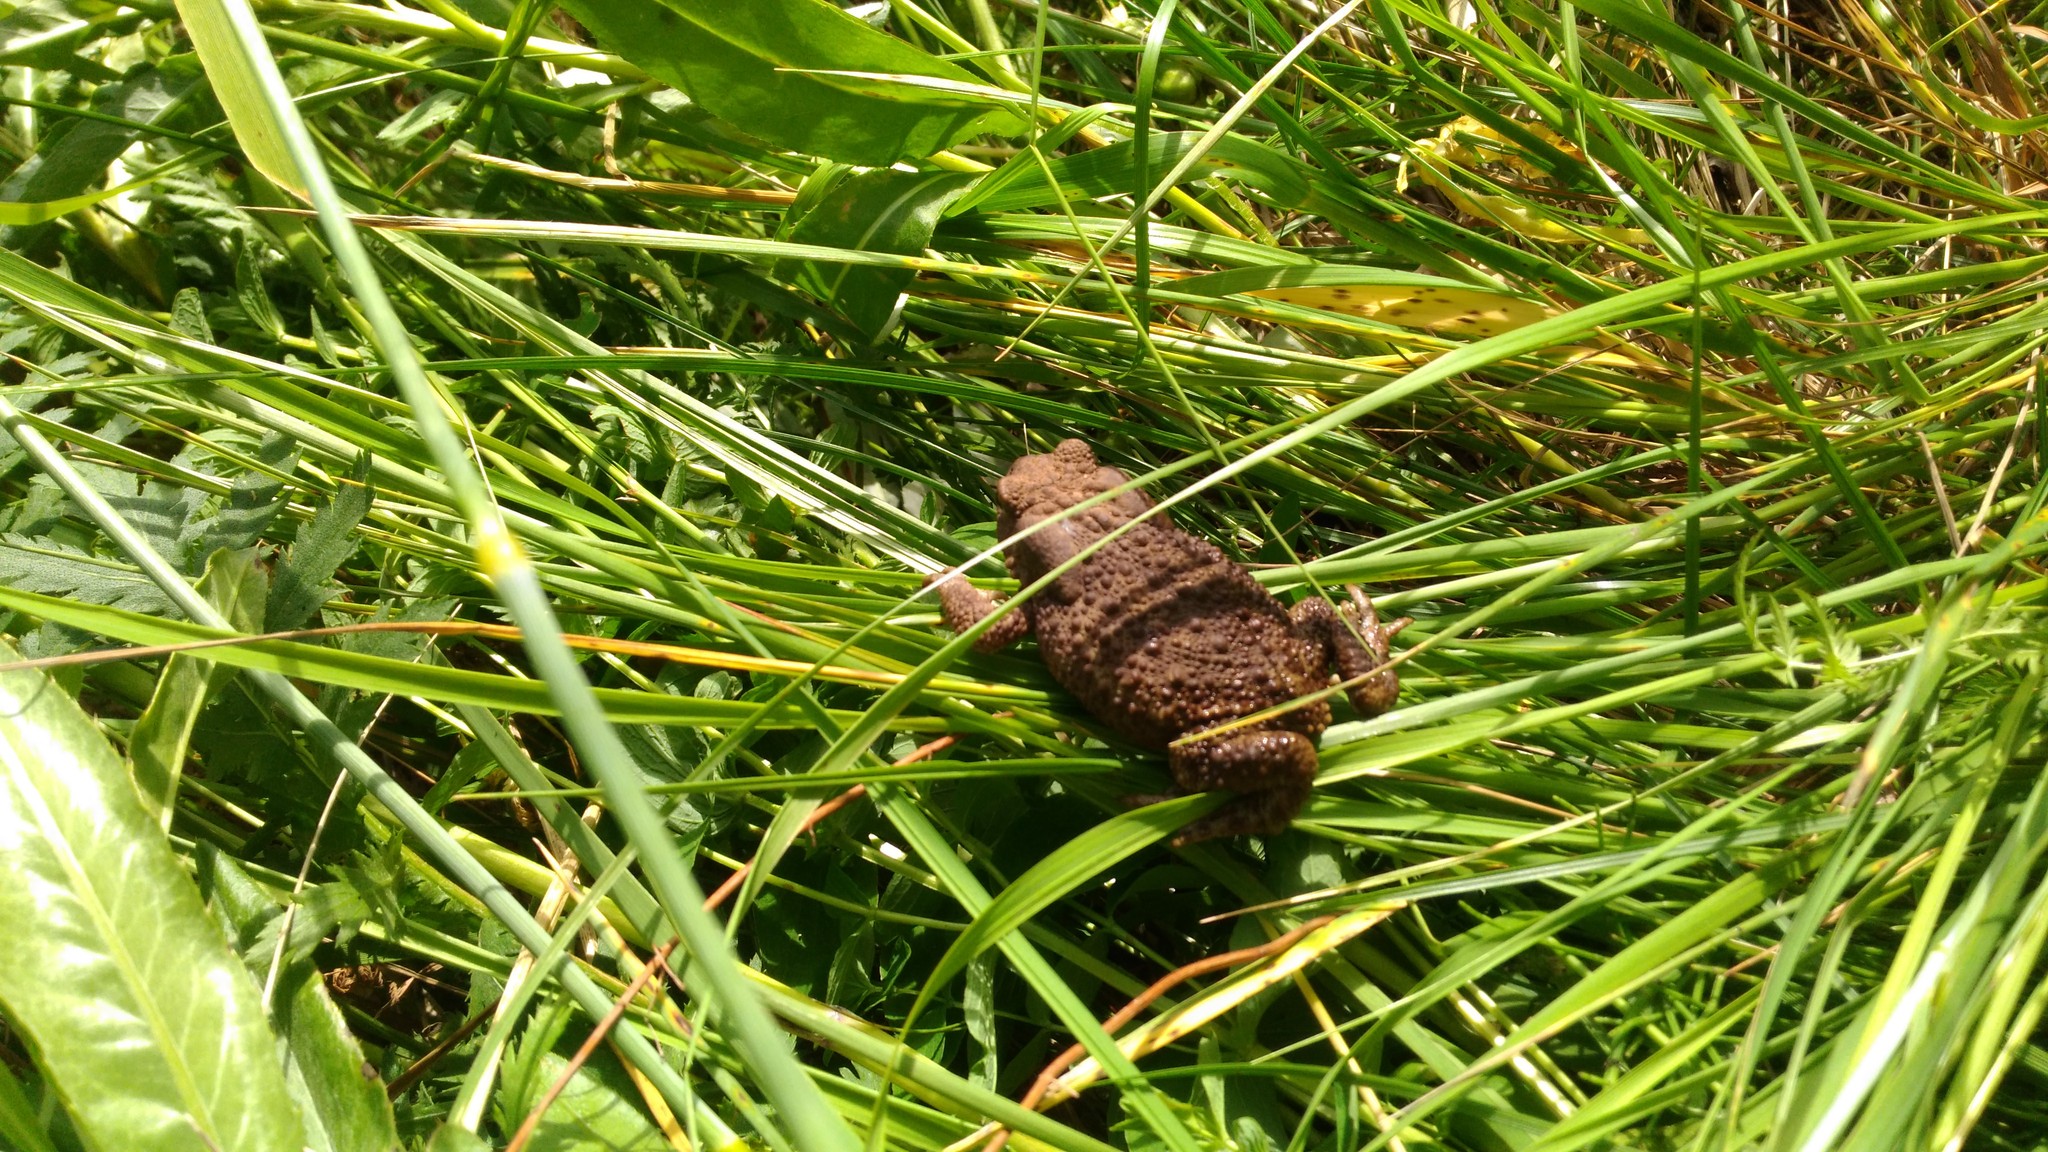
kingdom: Animalia
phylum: Chordata
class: Amphibia
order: Anura
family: Bufonidae
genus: Bufo
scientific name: Bufo bufo
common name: Common toad
